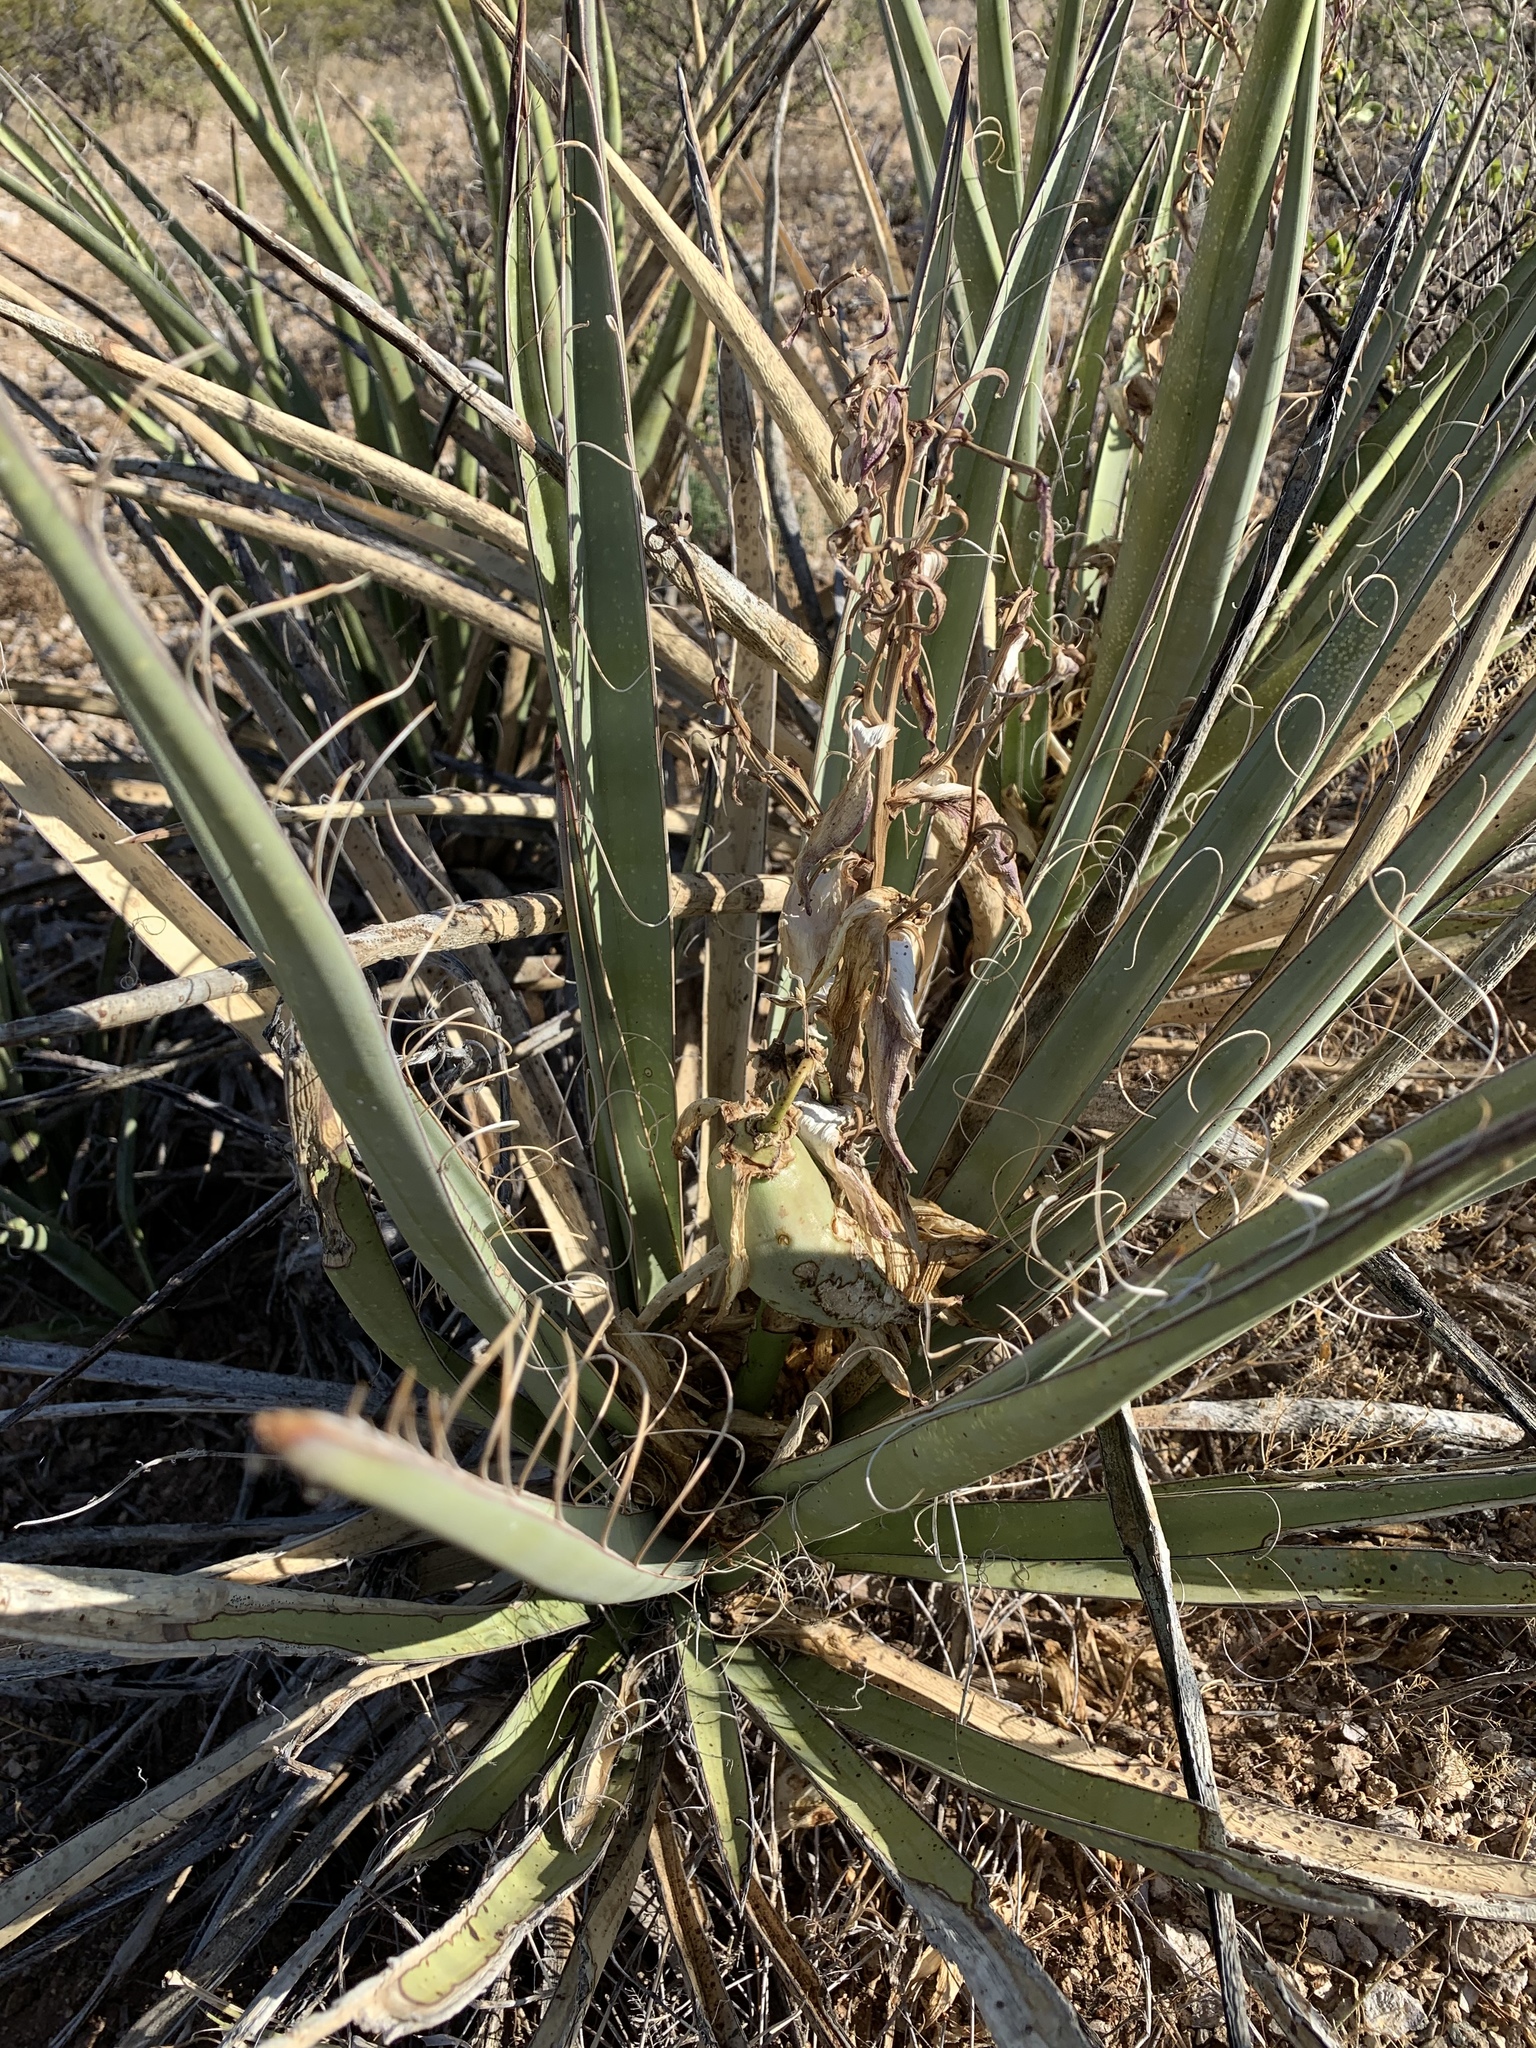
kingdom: Plantae
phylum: Tracheophyta
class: Liliopsida
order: Asparagales
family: Asparagaceae
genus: Yucca
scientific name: Yucca baccata
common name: Banana yucca
